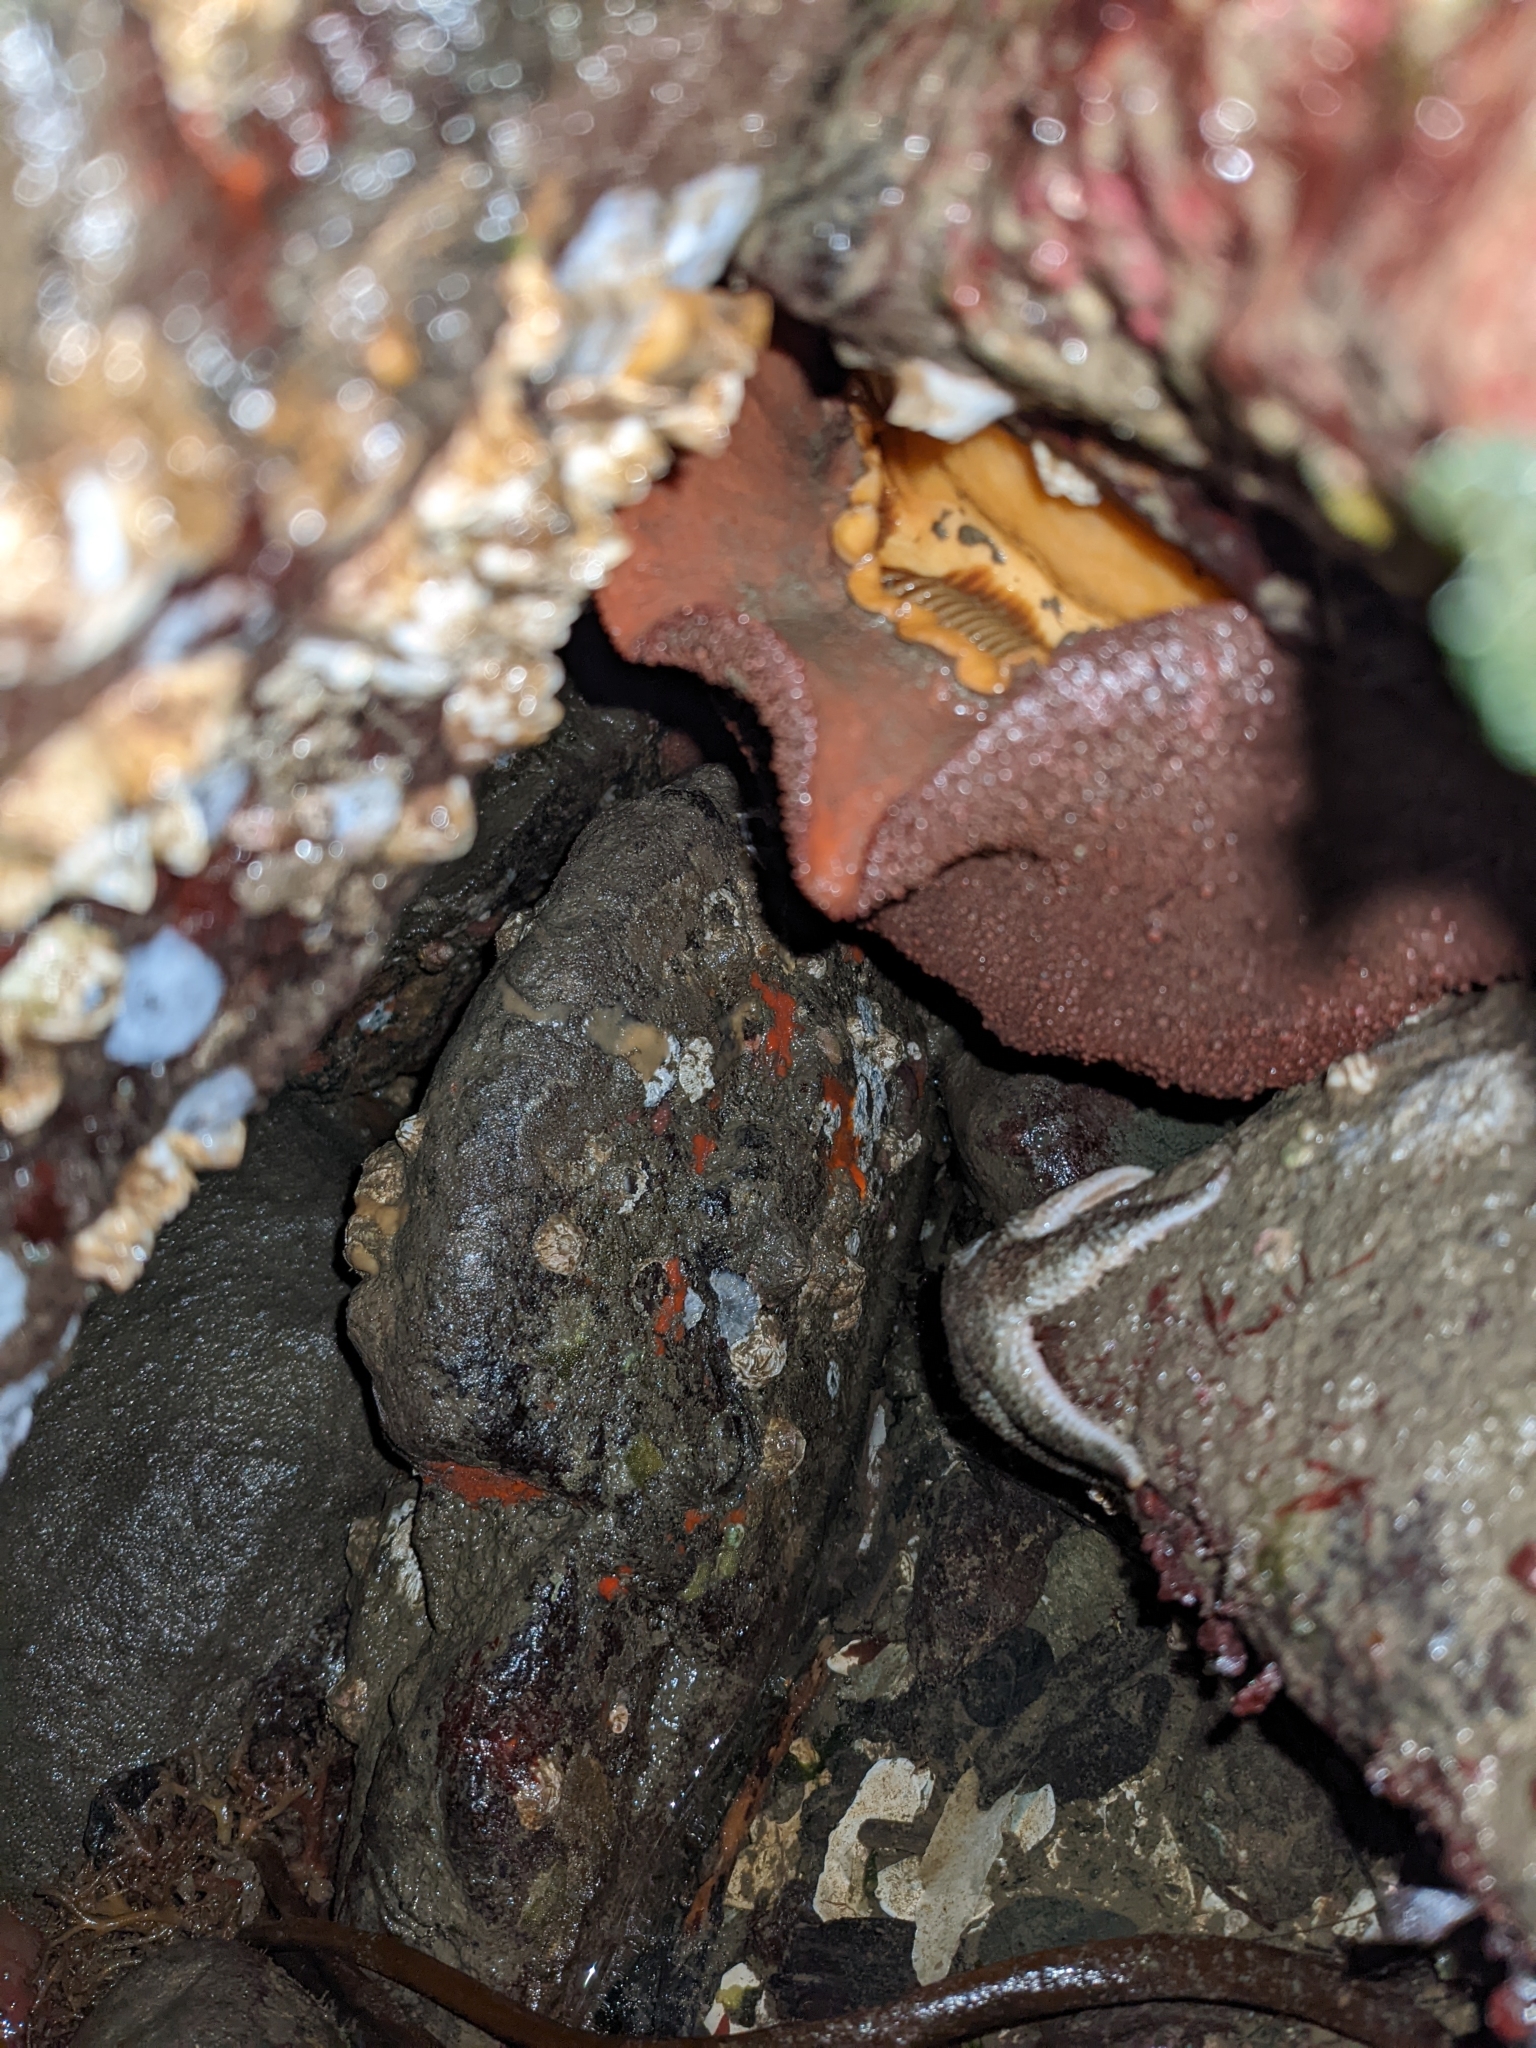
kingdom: Animalia
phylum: Mollusca
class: Polyplacophora
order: Chitonida
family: Acanthochitonidae
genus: Cryptochiton
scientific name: Cryptochiton stelleri
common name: Giant pacific chiton
